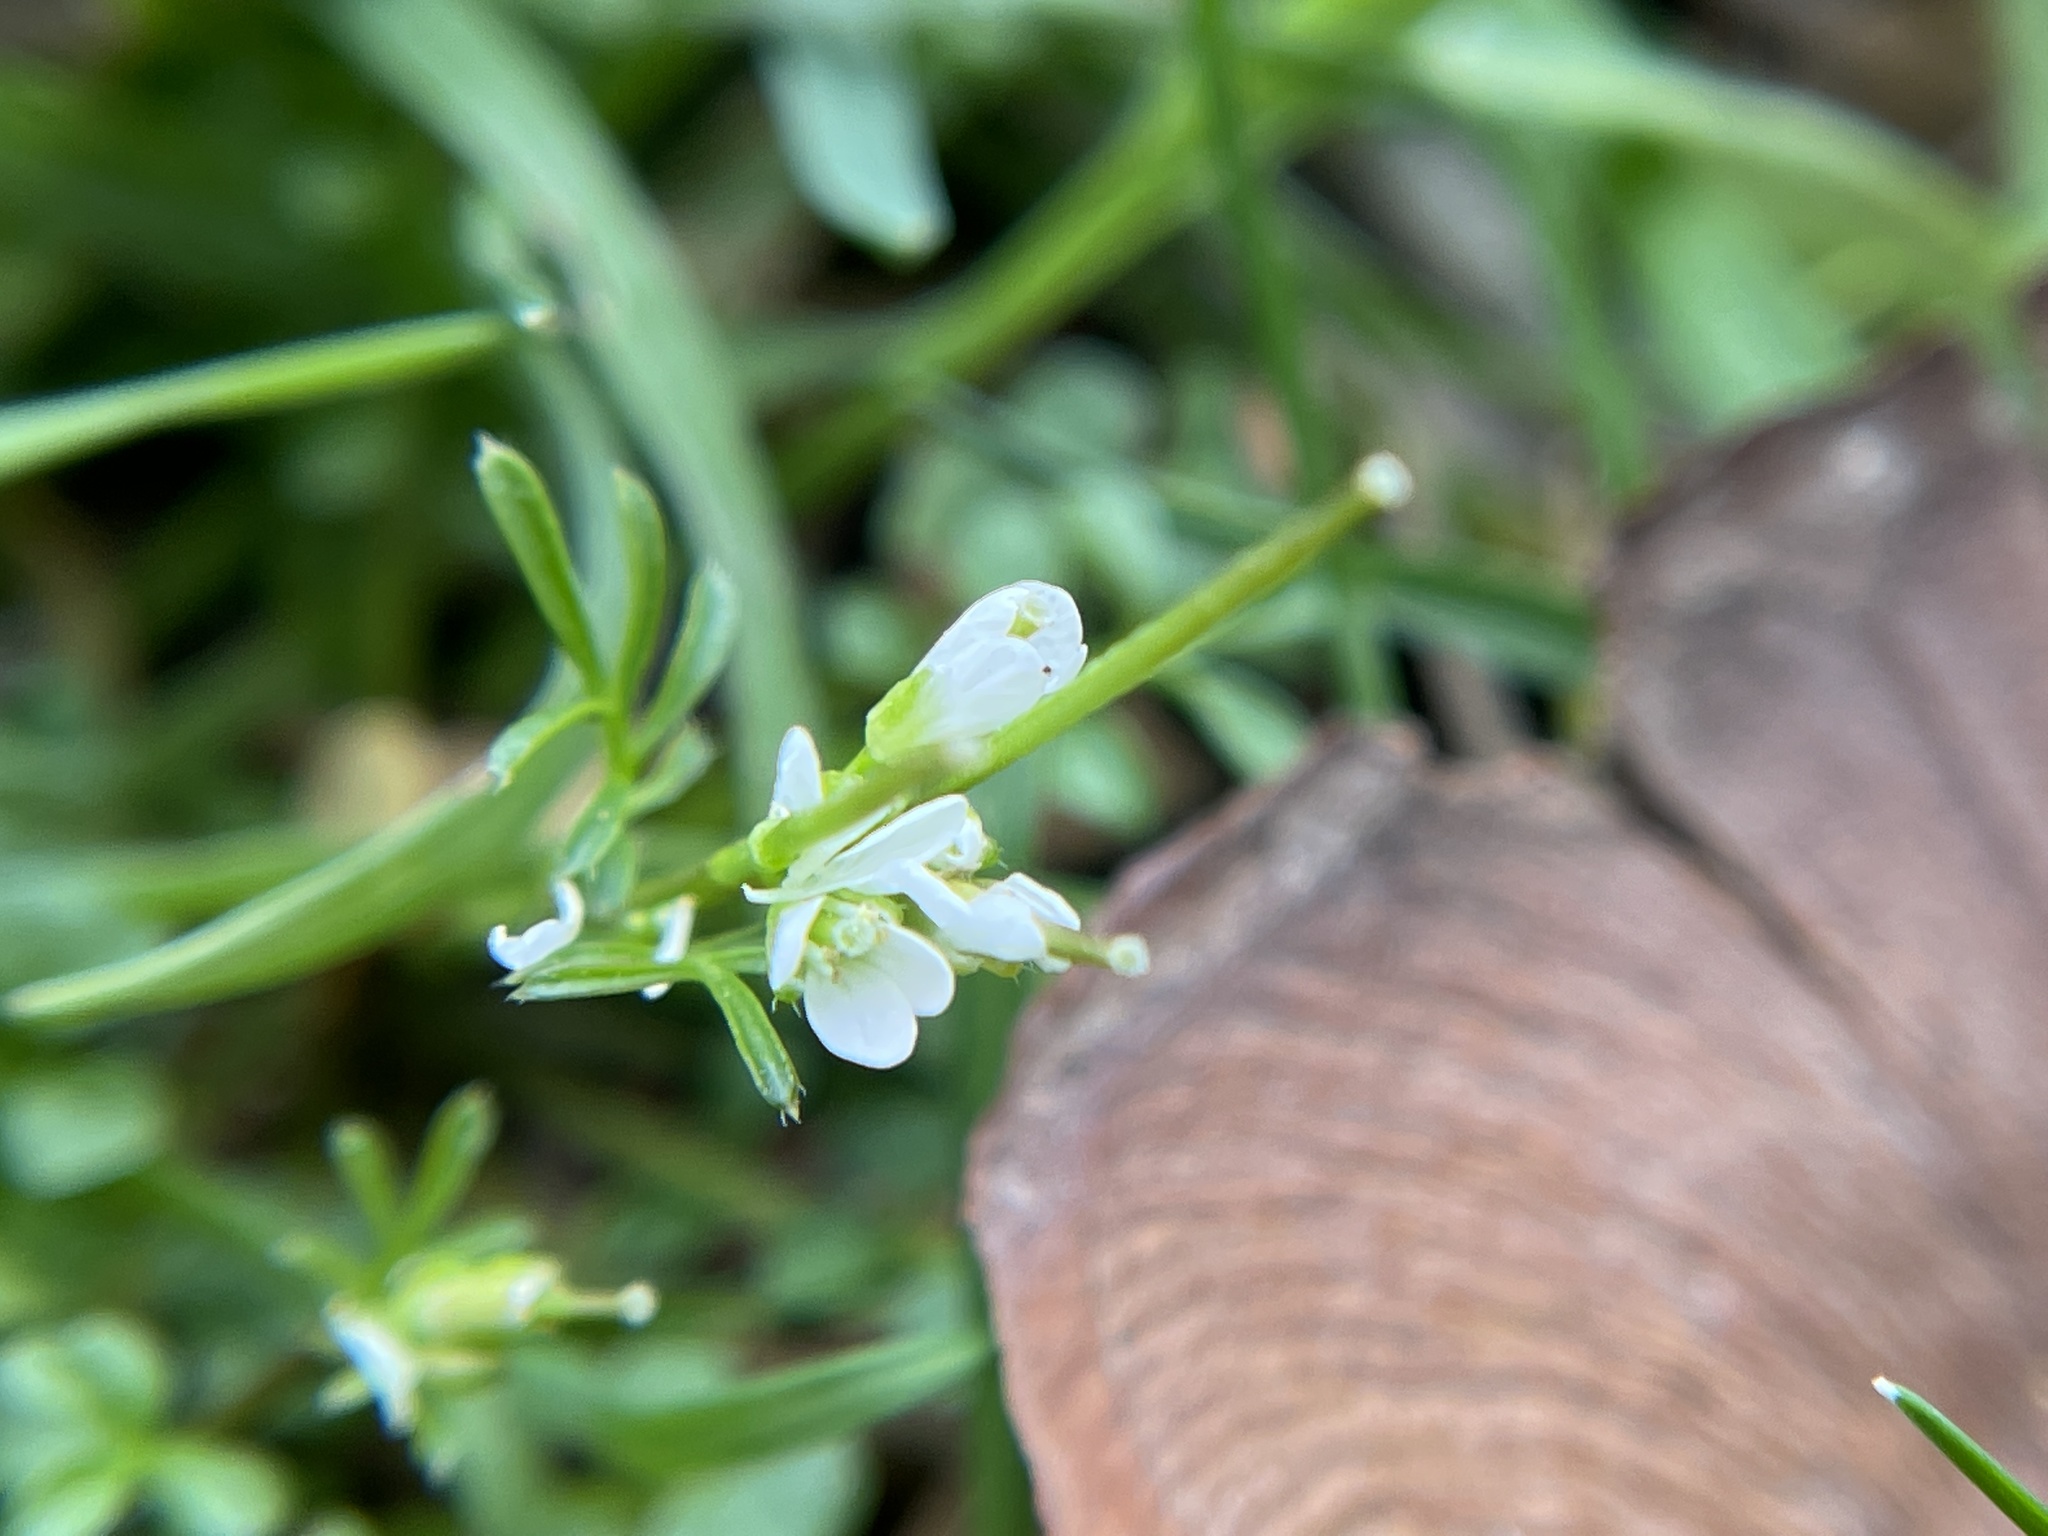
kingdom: Plantae
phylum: Tracheophyta
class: Magnoliopsida
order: Brassicales
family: Brassicaceae
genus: Cardamine
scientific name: Cardamine hirsuta
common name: Hairy bittercress
